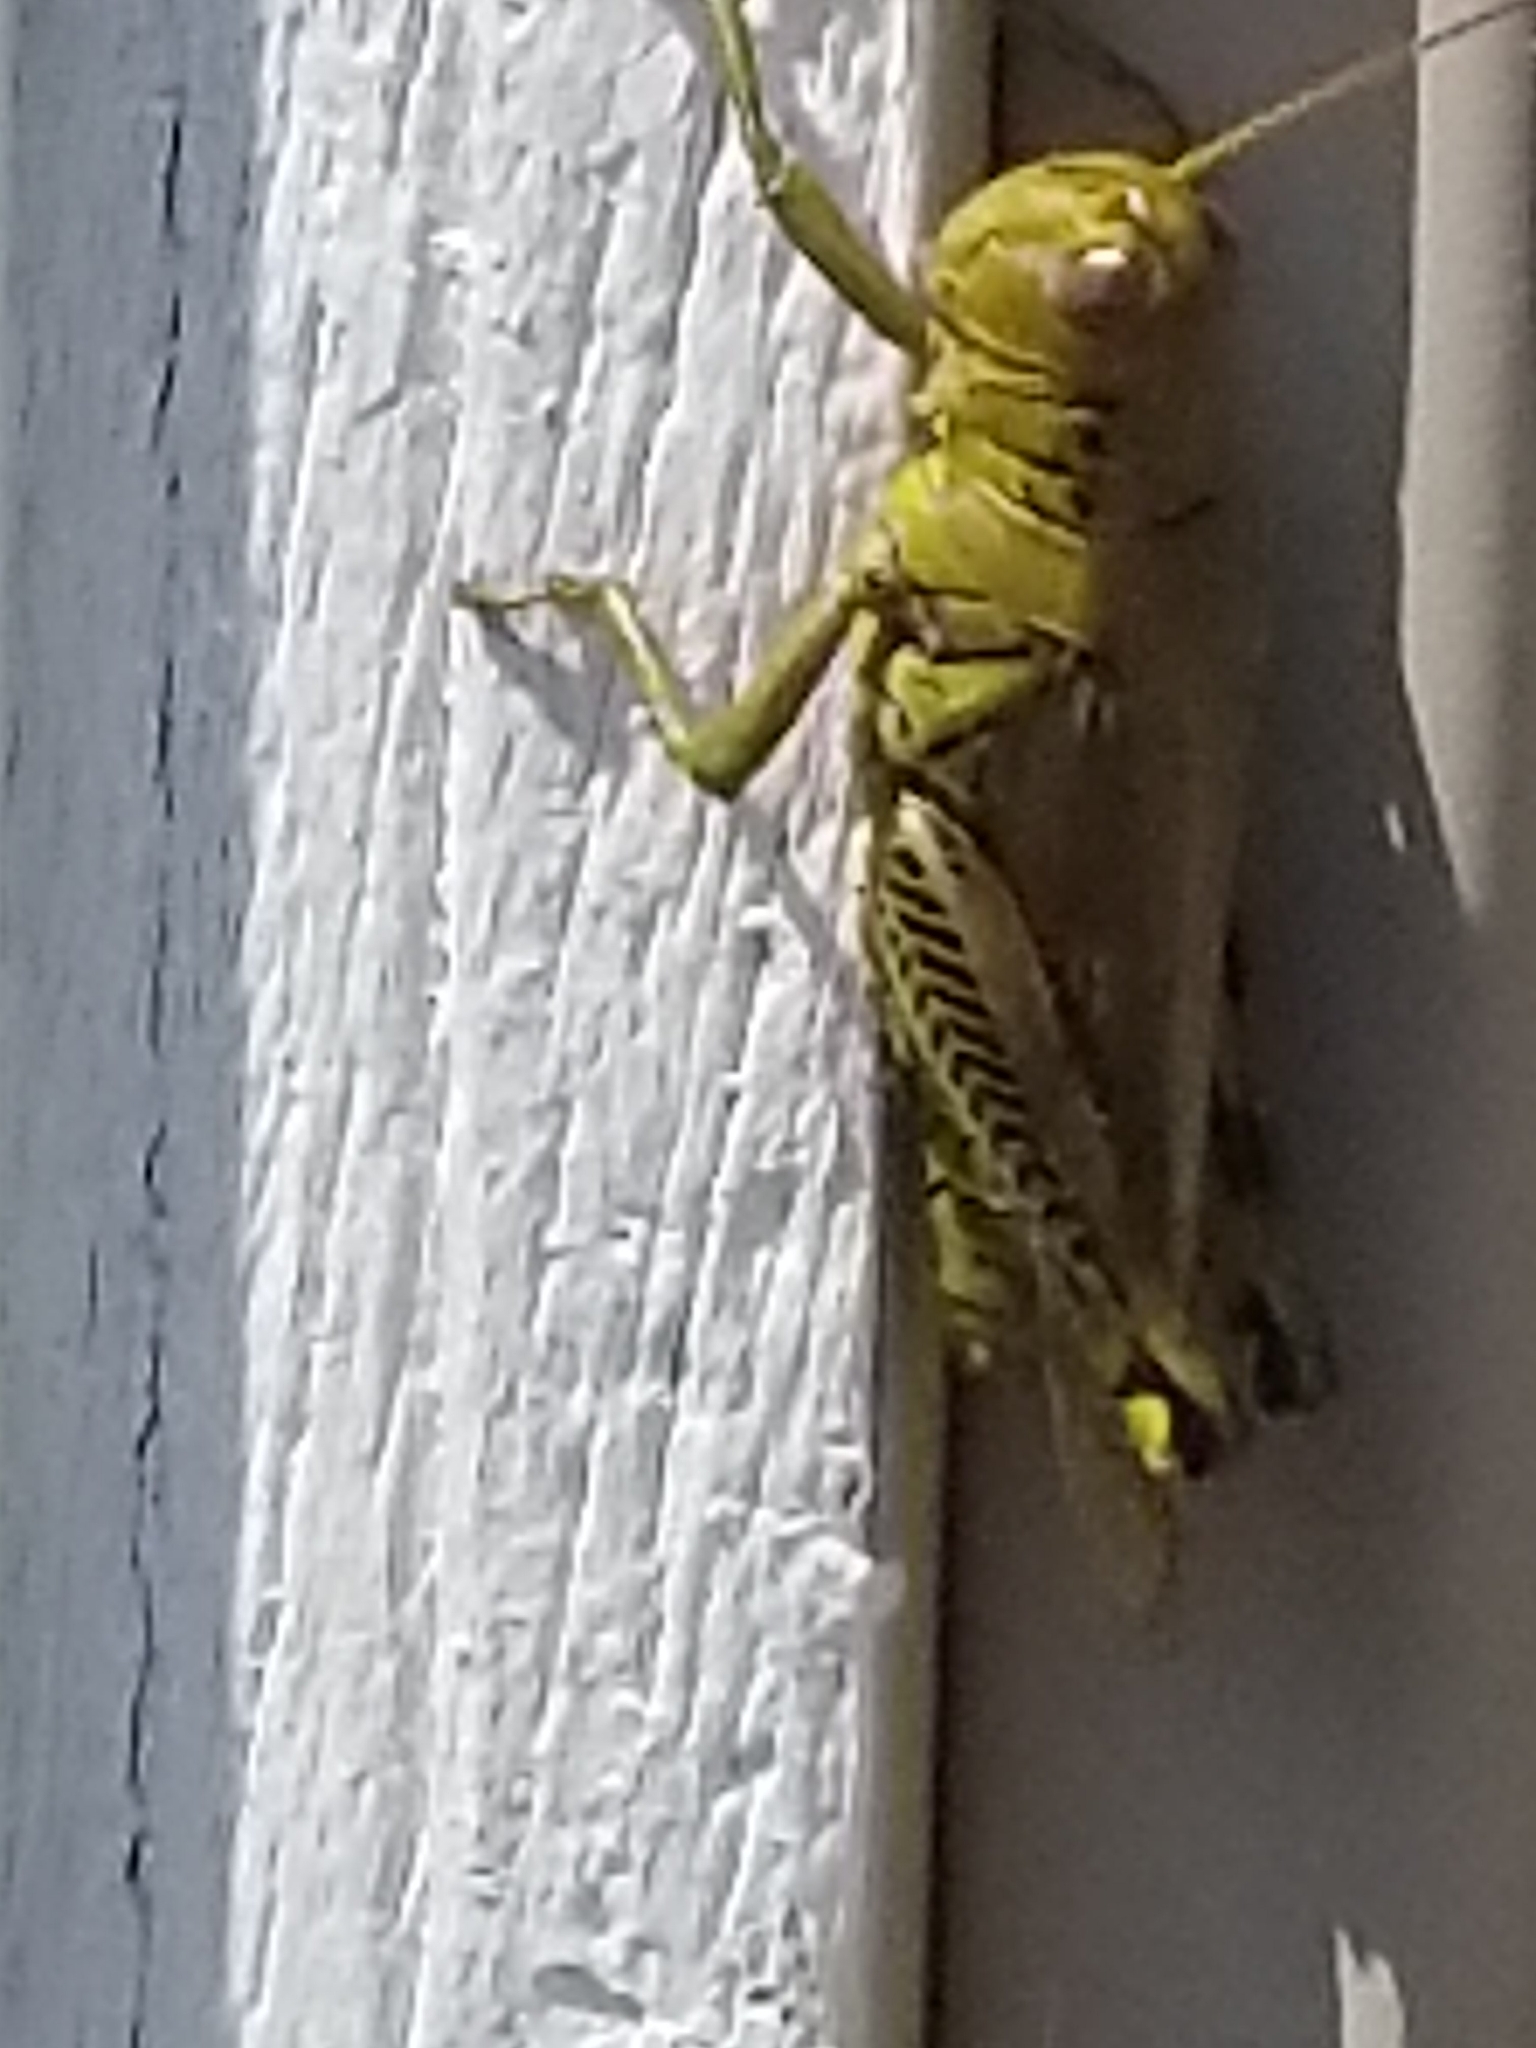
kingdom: Animalia
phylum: Arthropoda
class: Insecta
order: Orthoptera
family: Acrididae
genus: Melanoplus
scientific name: Melanoplus differentialis
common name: Differential grasshopper
